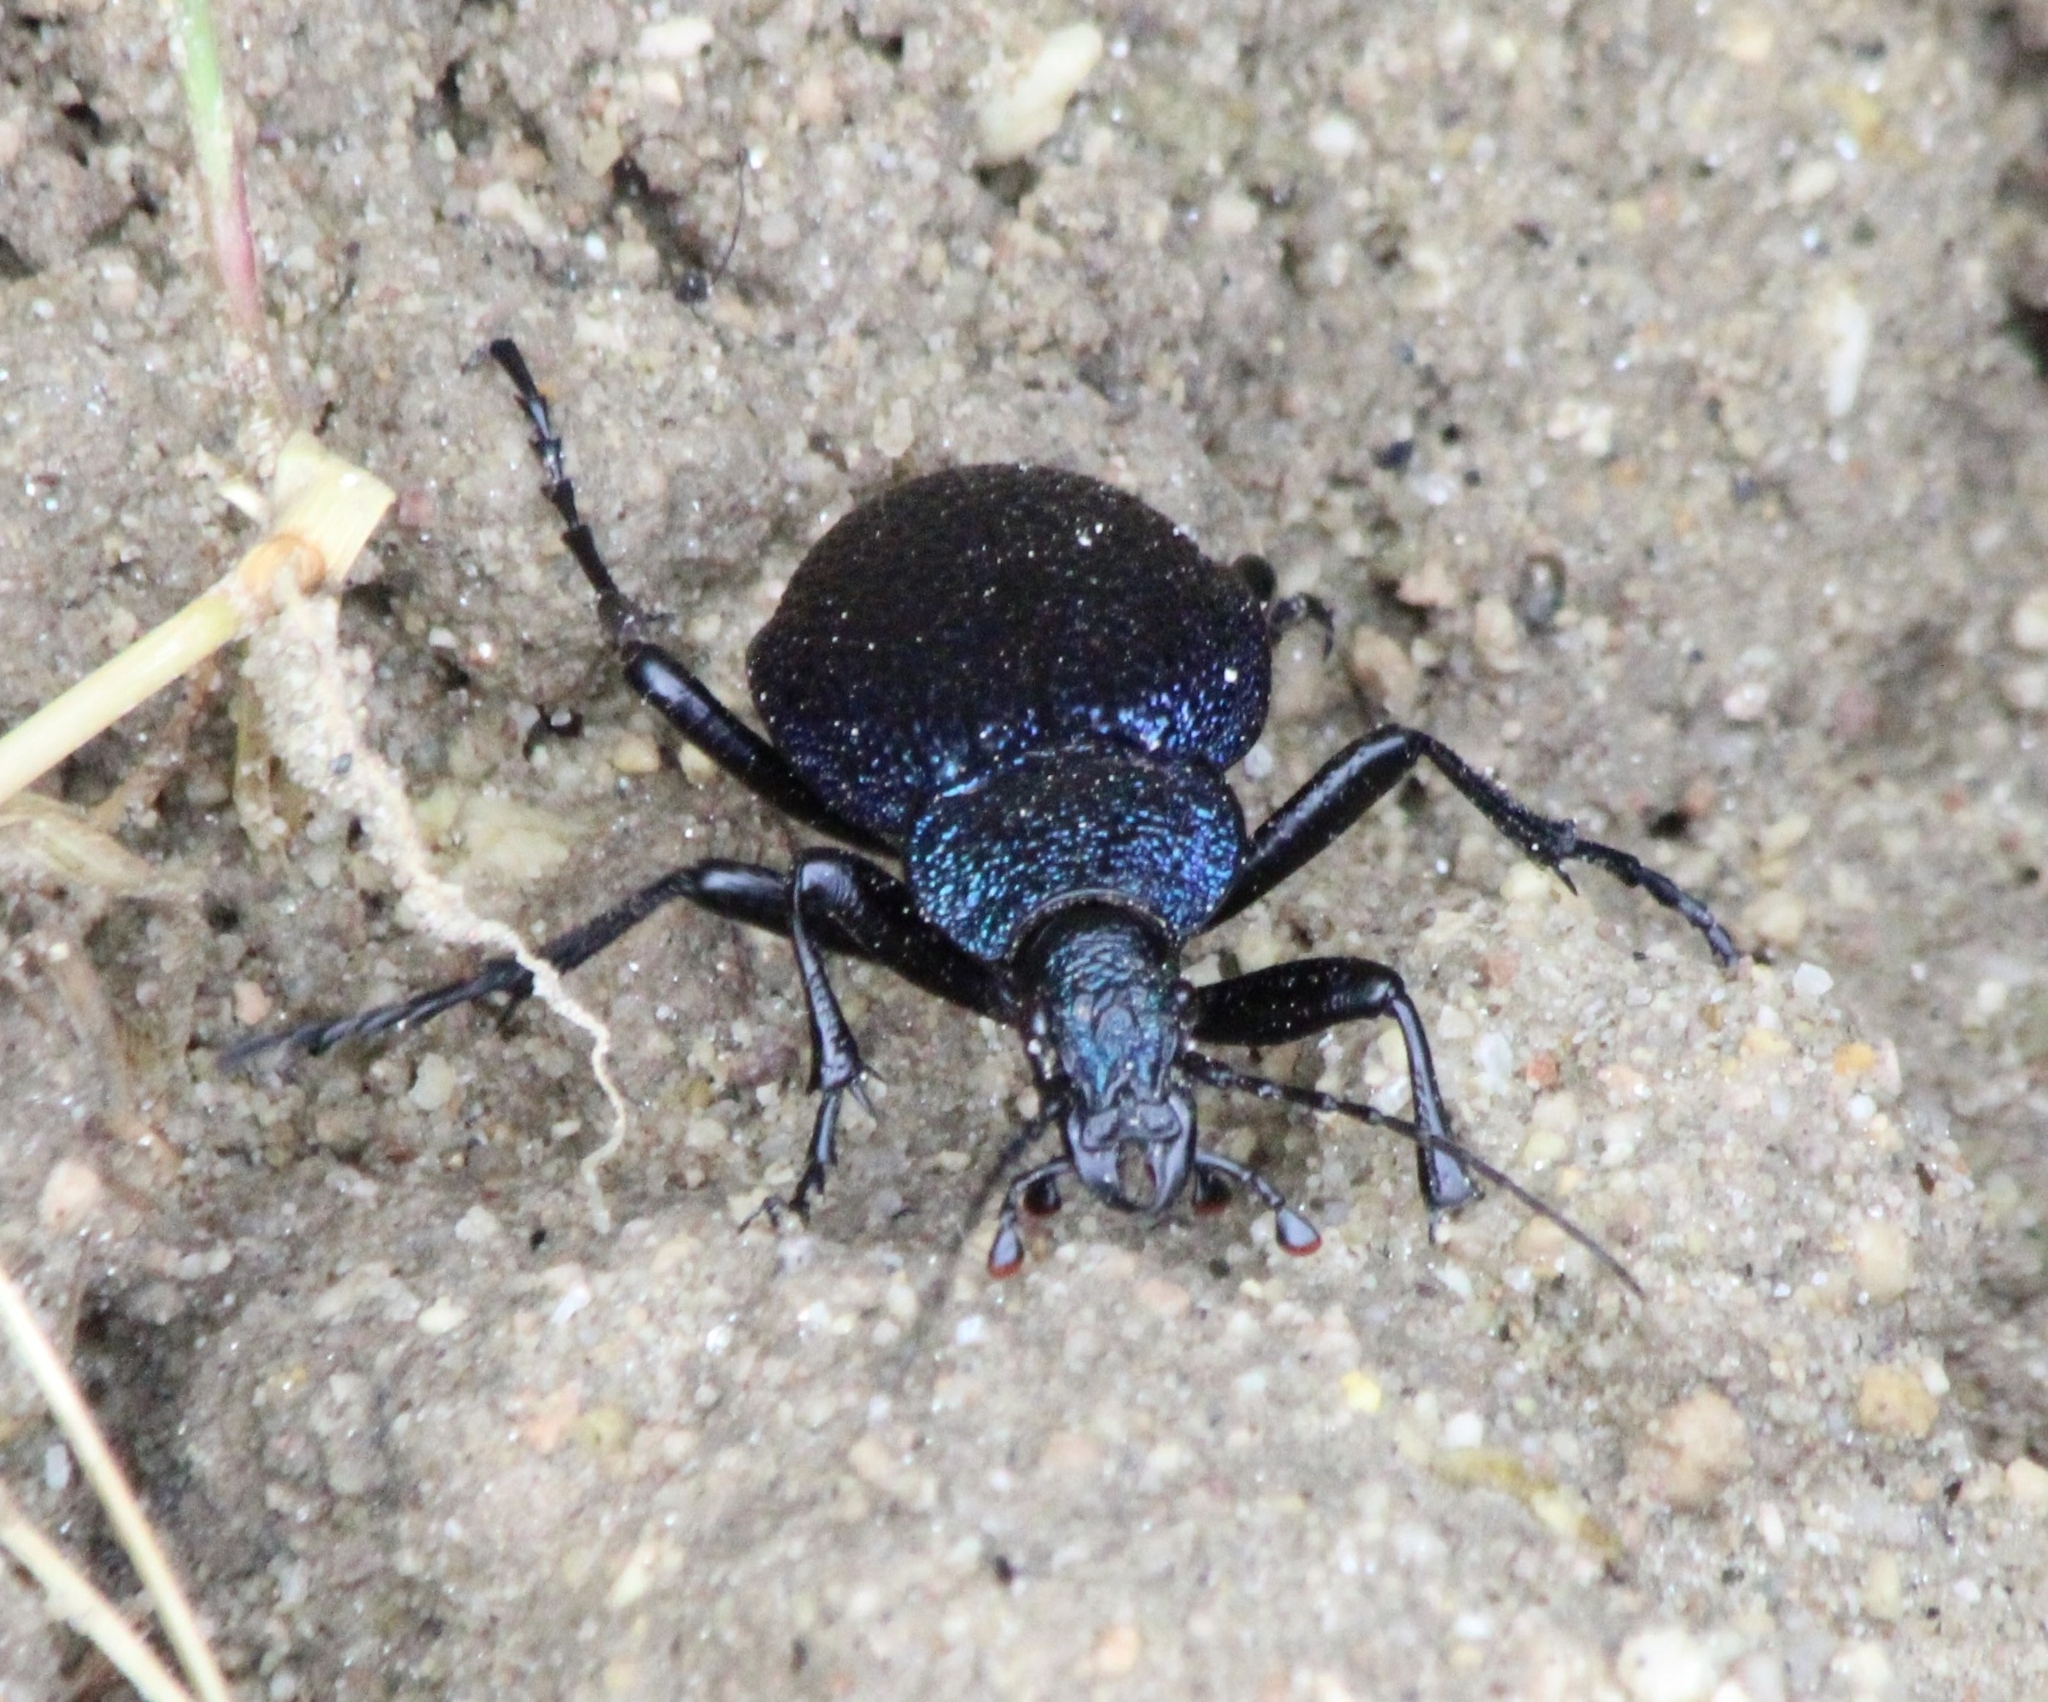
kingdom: Animalia
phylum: Arthropoda
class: Insecta
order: Coleoptera
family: Carabidae
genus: Carabus
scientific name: Carabus scabrosus
